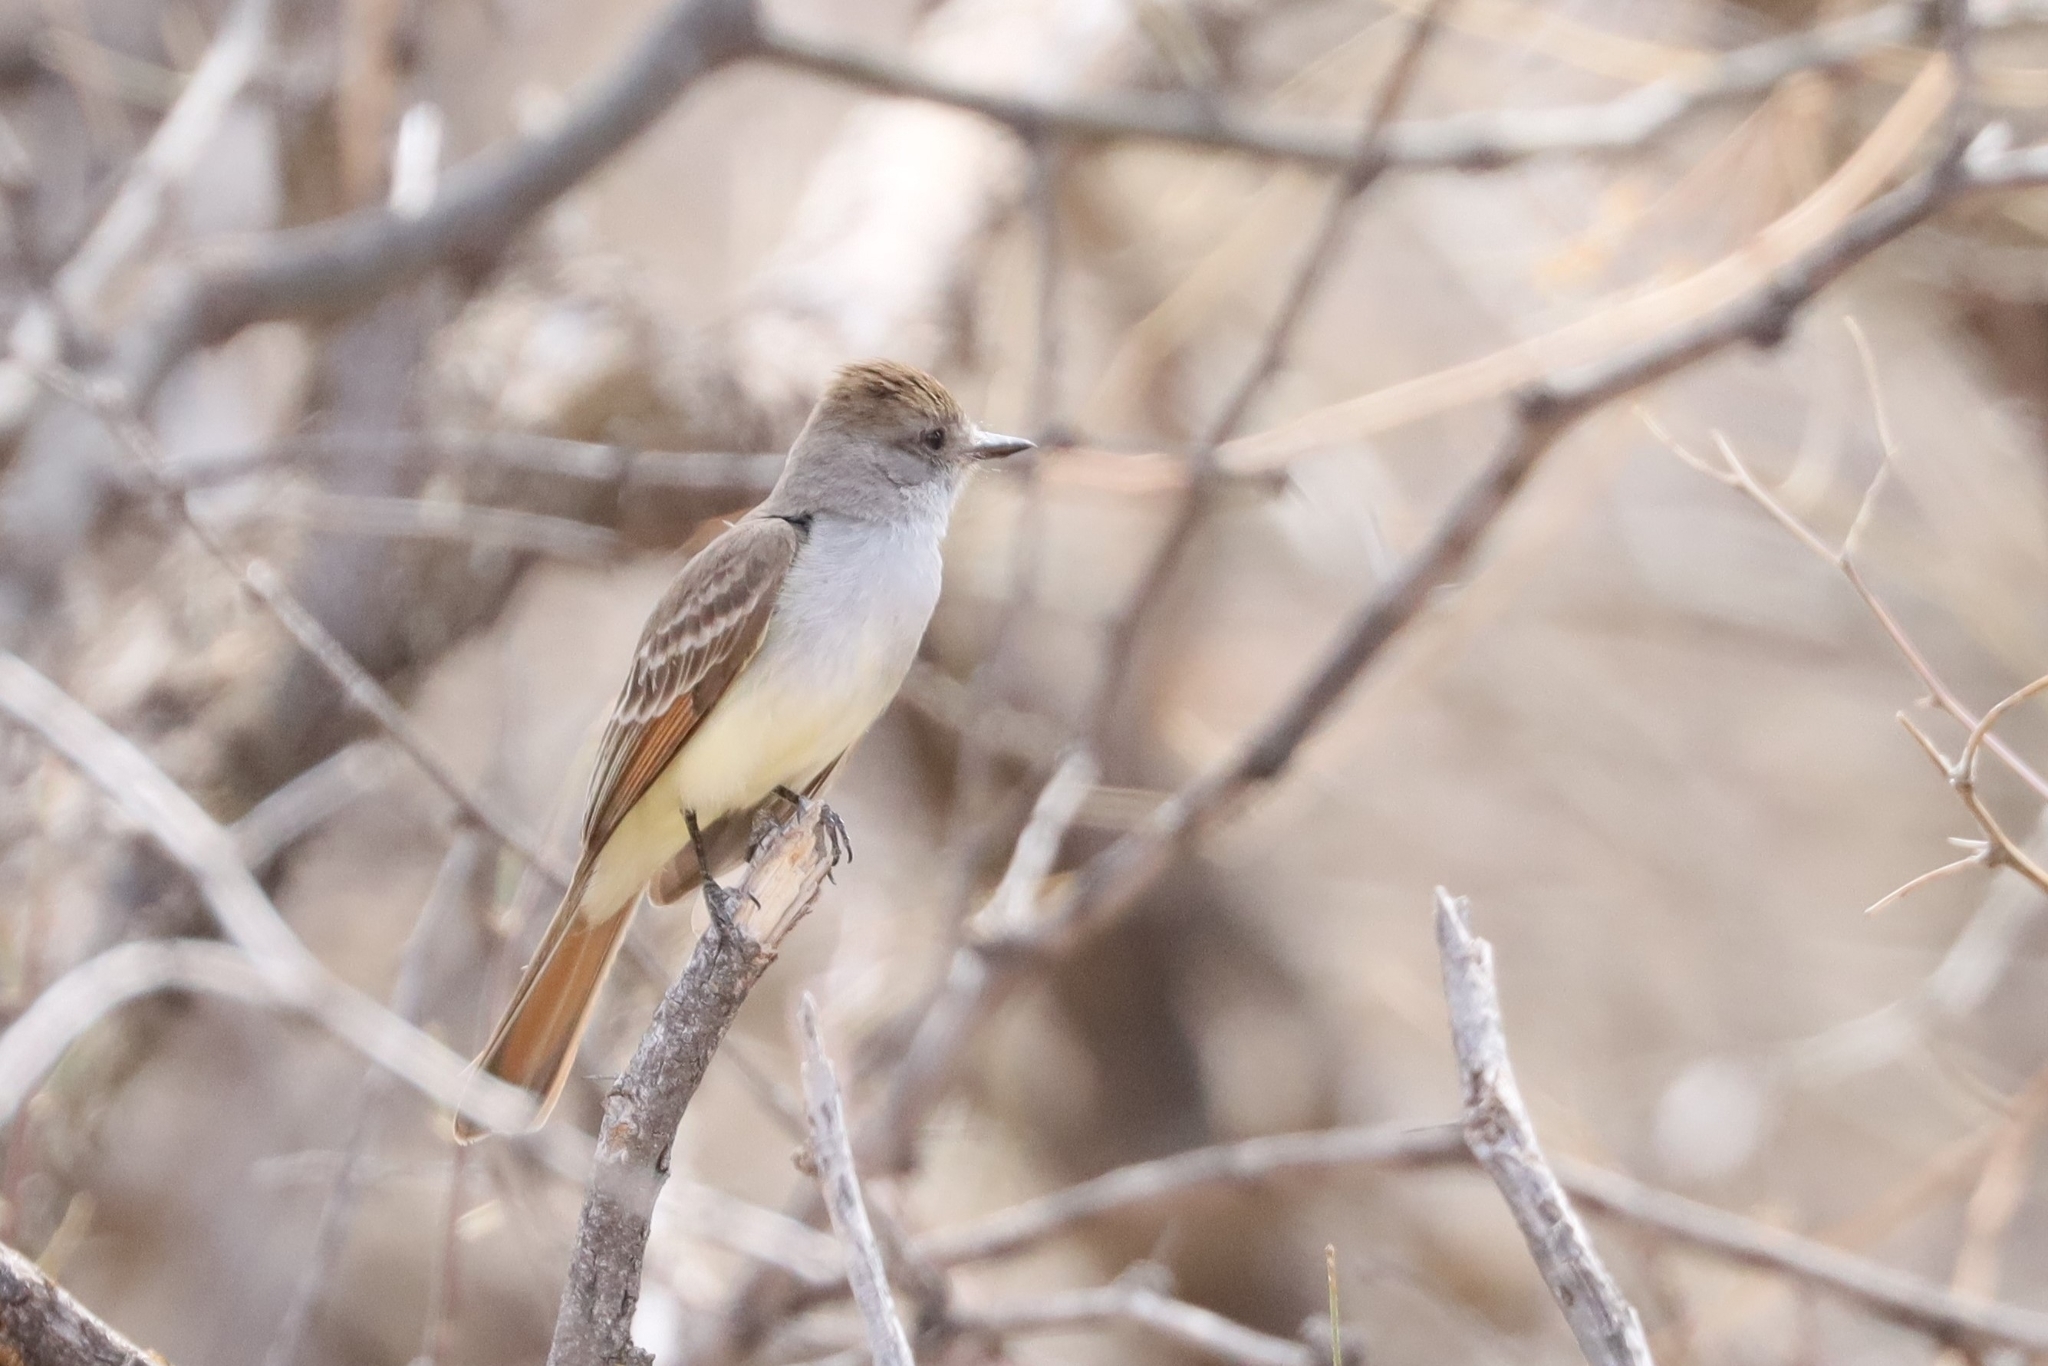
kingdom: Animalia
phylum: Chordata
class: Aves
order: Passeriformes
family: Tyrannidae
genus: Myiarchus
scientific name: Myiarchus cinerascens
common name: Ash-throated flycatcher
